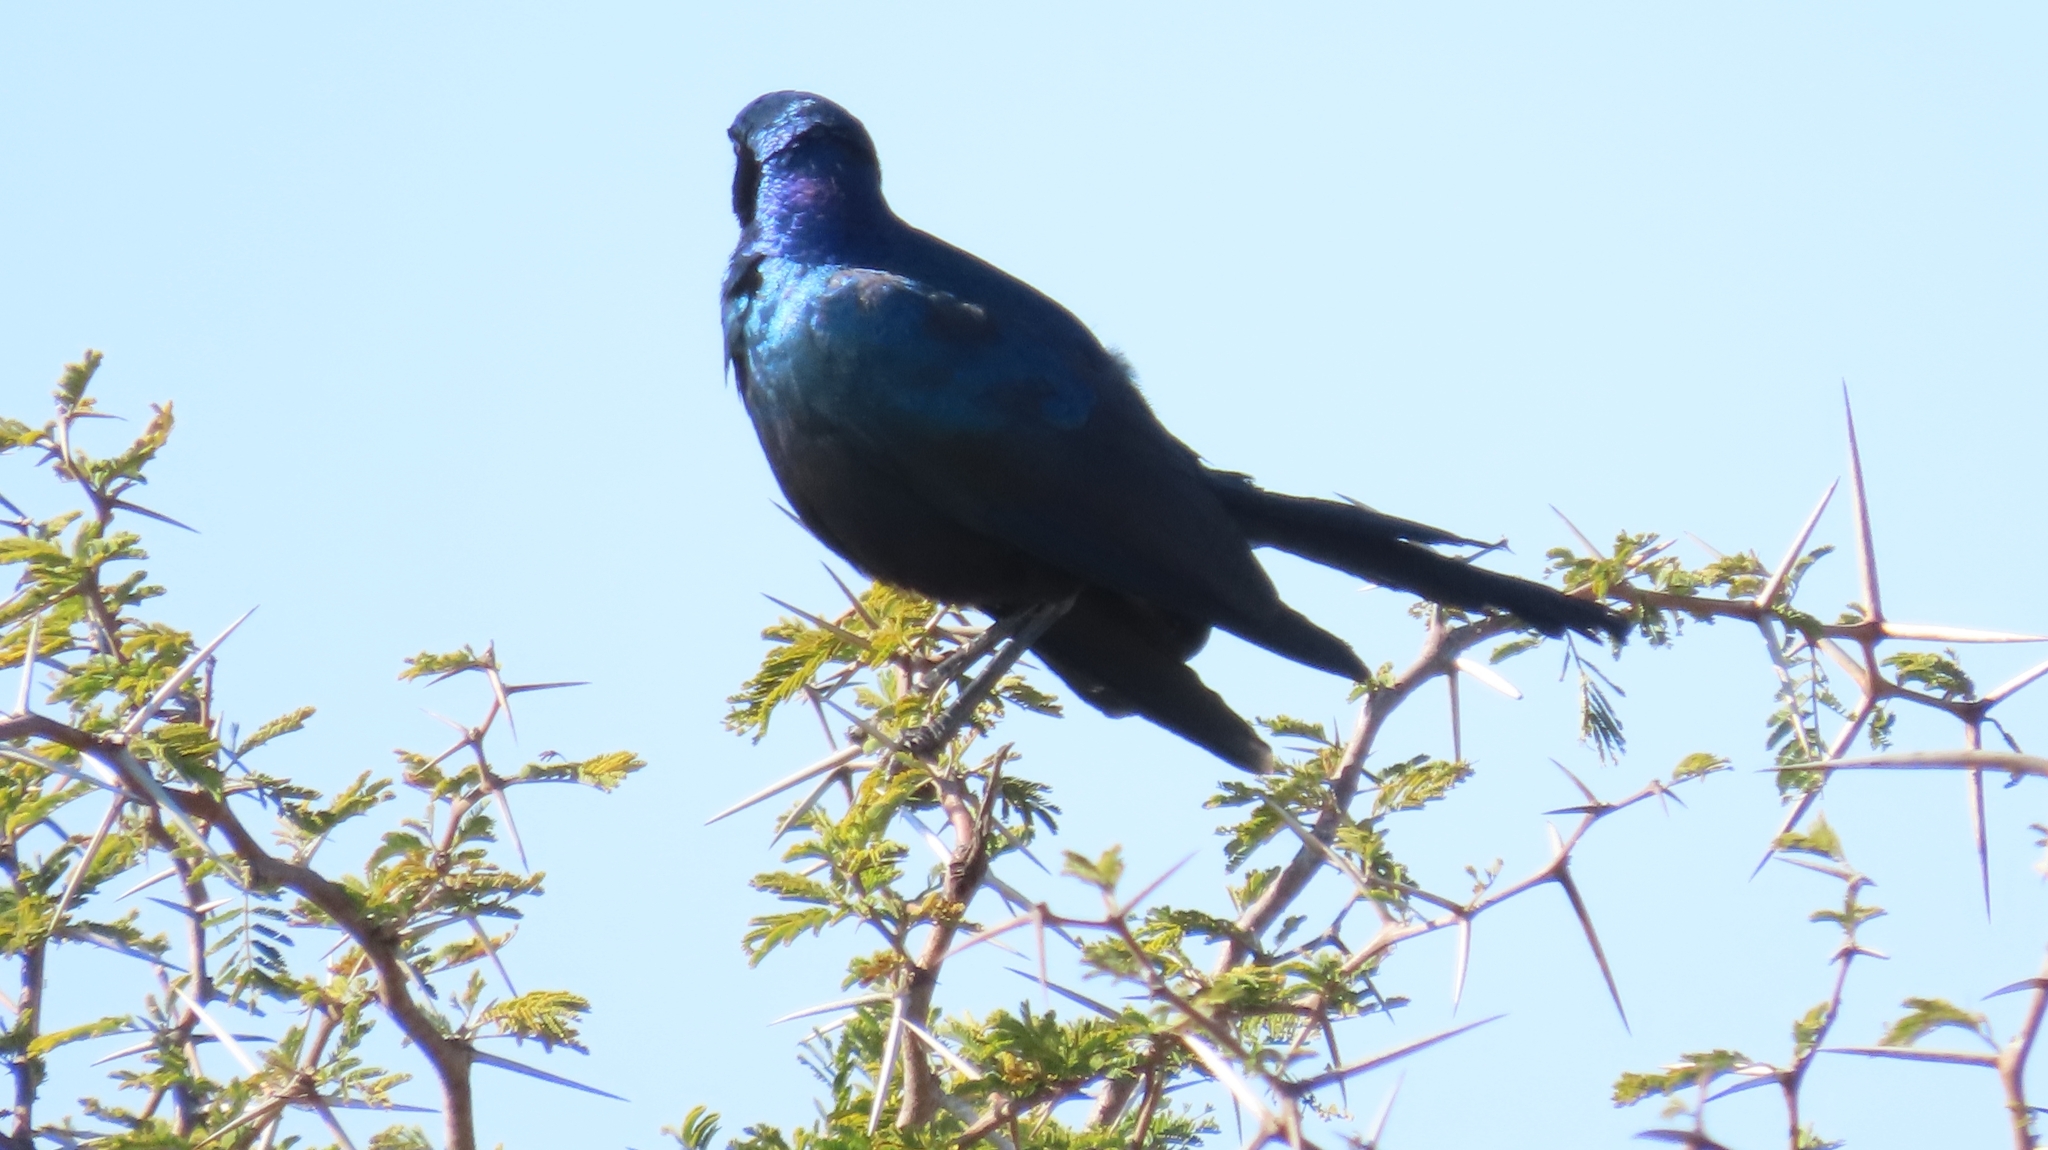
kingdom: Animalia
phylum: Chordata
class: Aves
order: Passeriformes
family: Sturnidae
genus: Lamprotornis
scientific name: Lamprotornis australis
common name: Burchell's starling
